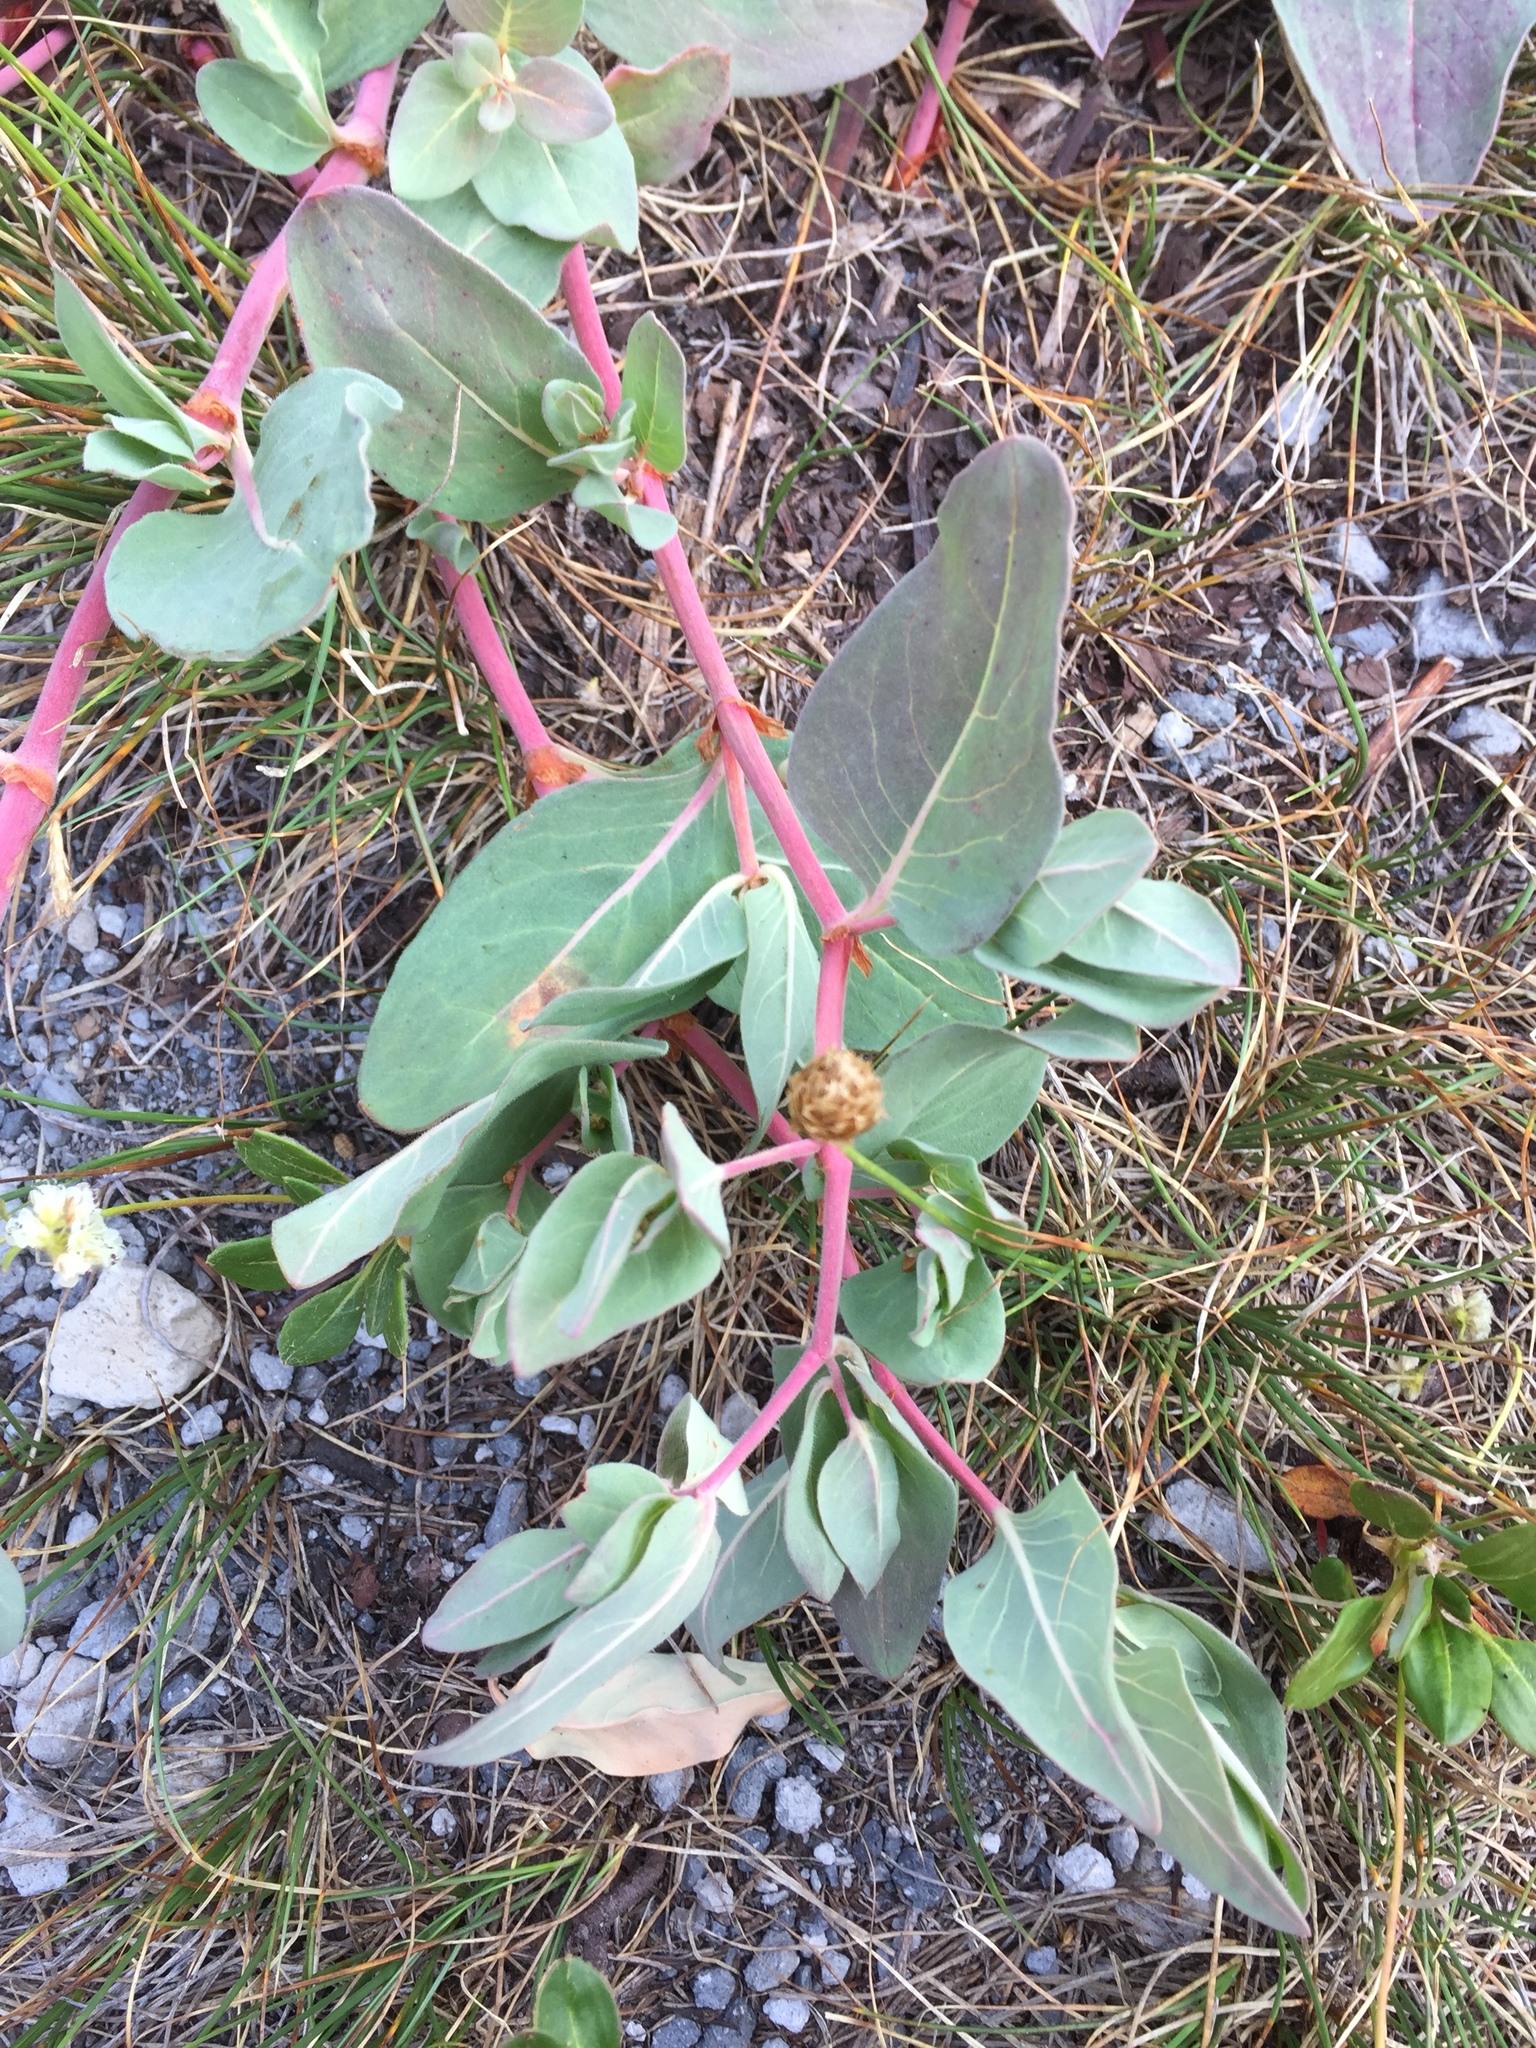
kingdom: Plantae
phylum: Tracheophyta
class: Magnoliopsida
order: Caryophyllales
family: Polygonaceae
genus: Koenigia
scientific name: Koenigia davisiae
